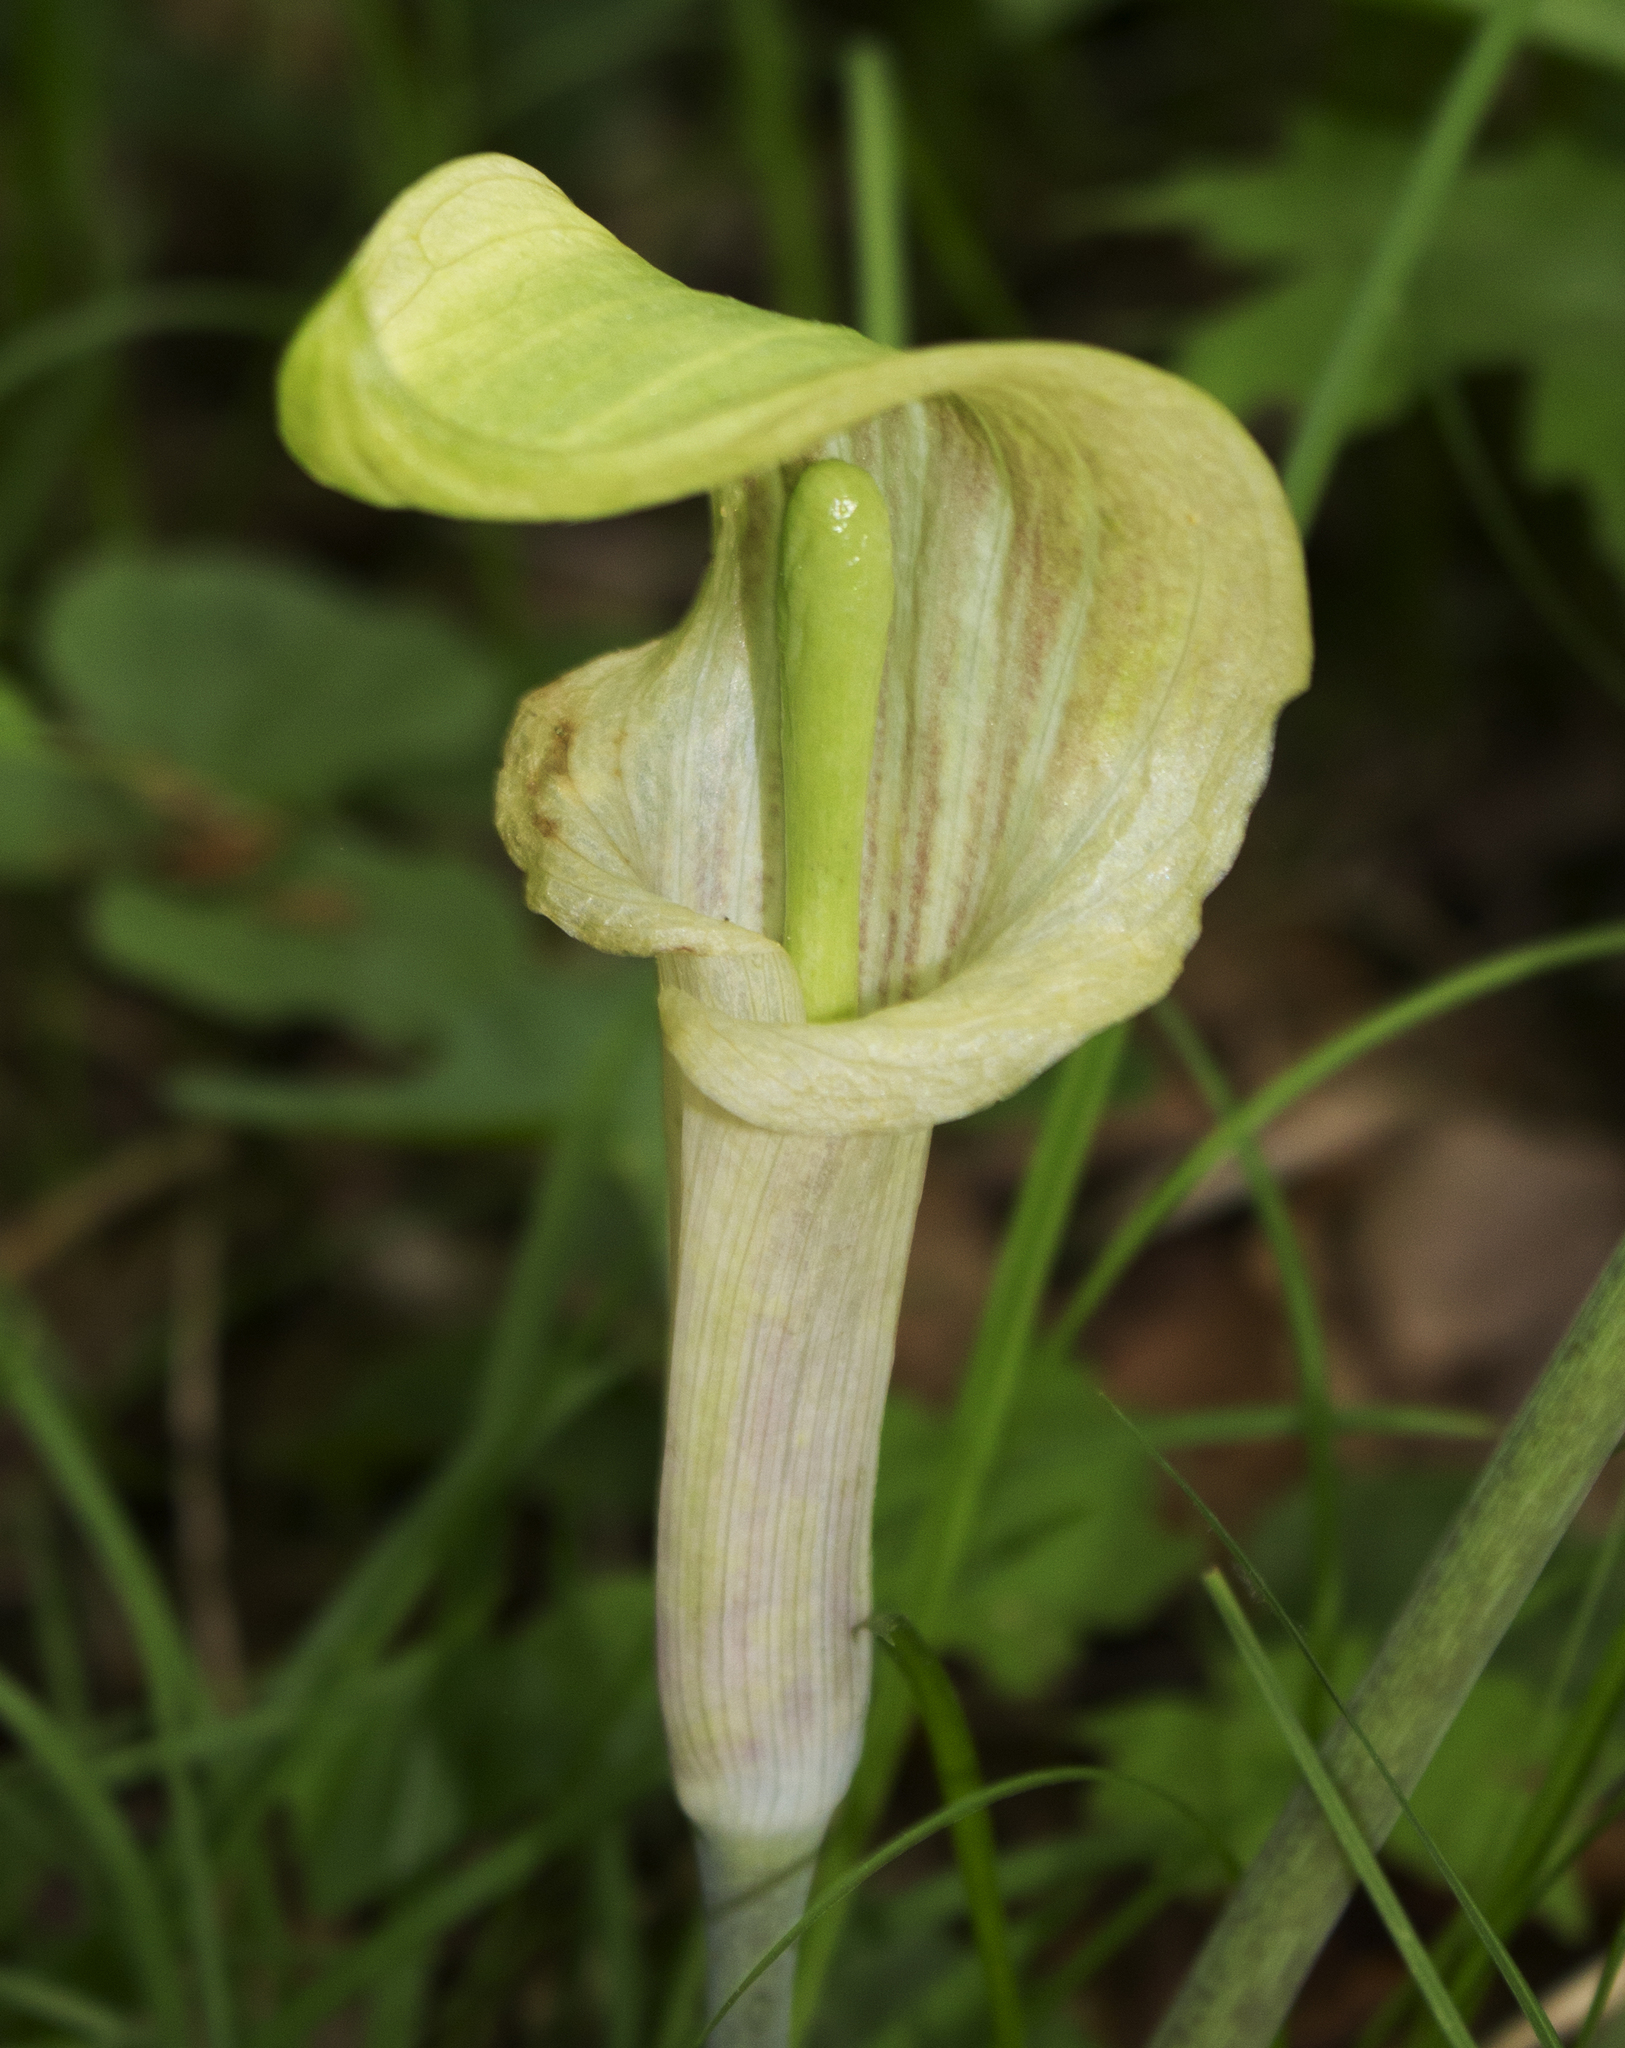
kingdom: Plantae
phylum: Tracheophyta
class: Liliopsida
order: Alismatales
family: Araceae
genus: Arisaema
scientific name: Arisaema triphyllum
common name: Jack-in-the-pulpit
